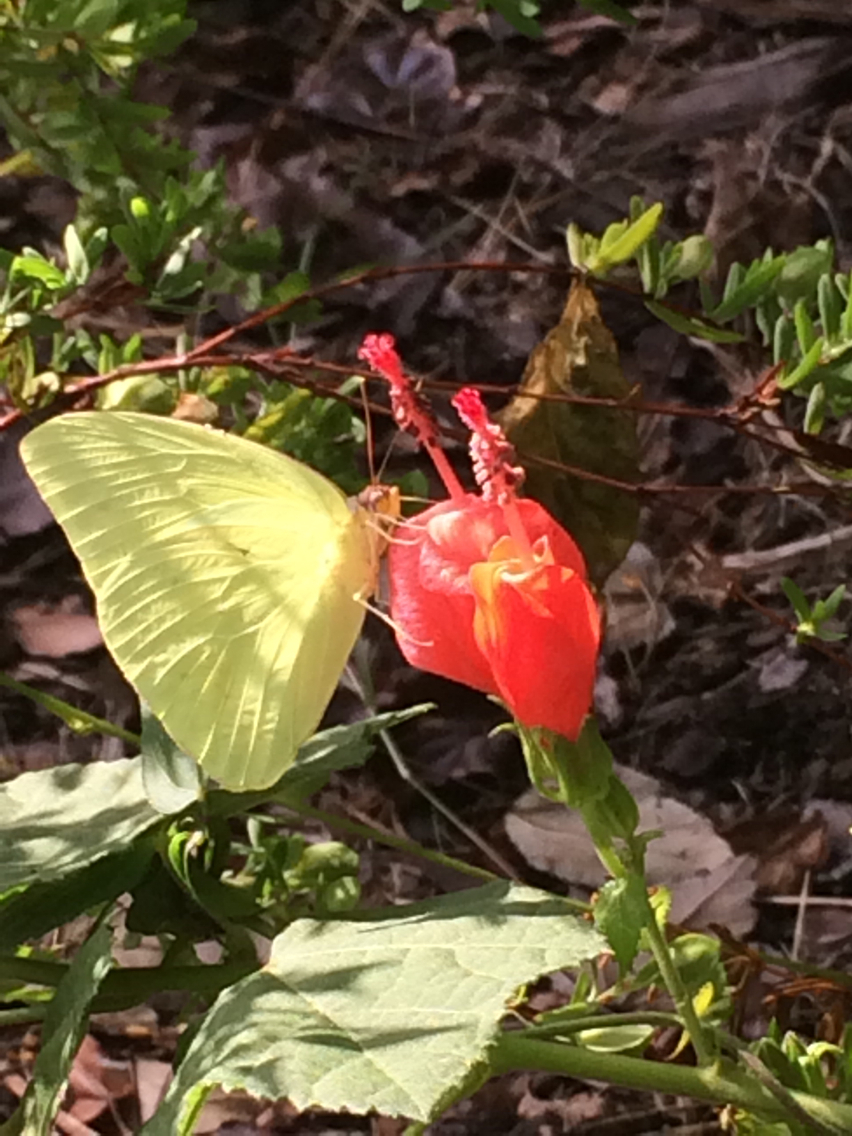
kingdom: Animalia
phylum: Arthropoda
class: Insecta
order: Lepidoptera
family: Pieridae
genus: Phoebis
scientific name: Phoebis sennae
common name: Cloudless sulphur
